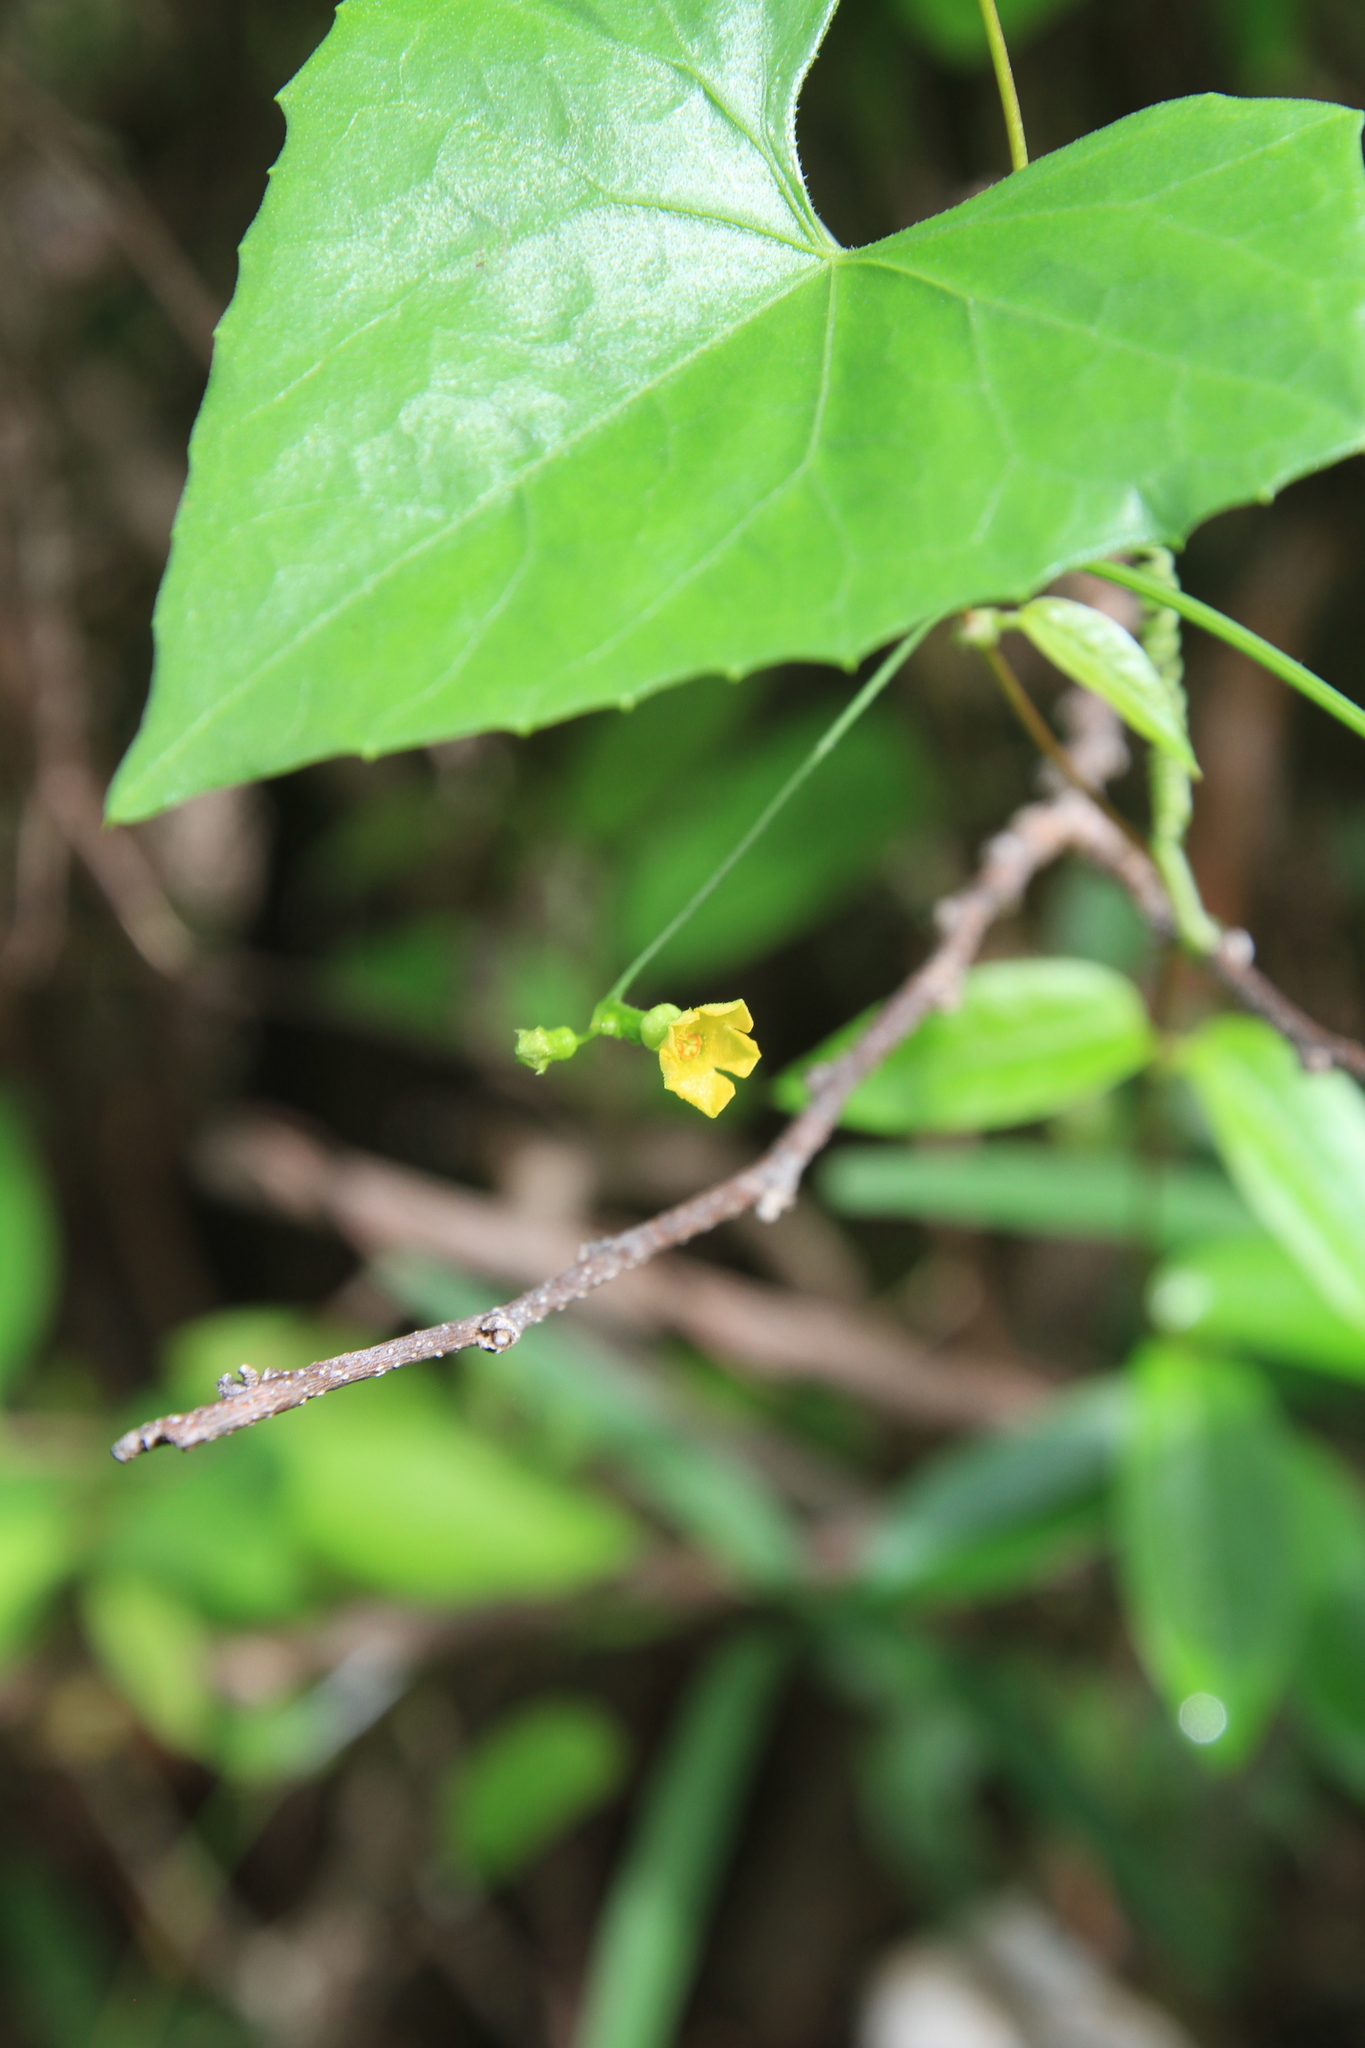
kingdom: Plantae
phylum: Tracheophyta
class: Magnoliopsida
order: Cucurbitales
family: Cucurbitaceae
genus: Melothria
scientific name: Melothria pendula
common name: Creeping-cucumber
